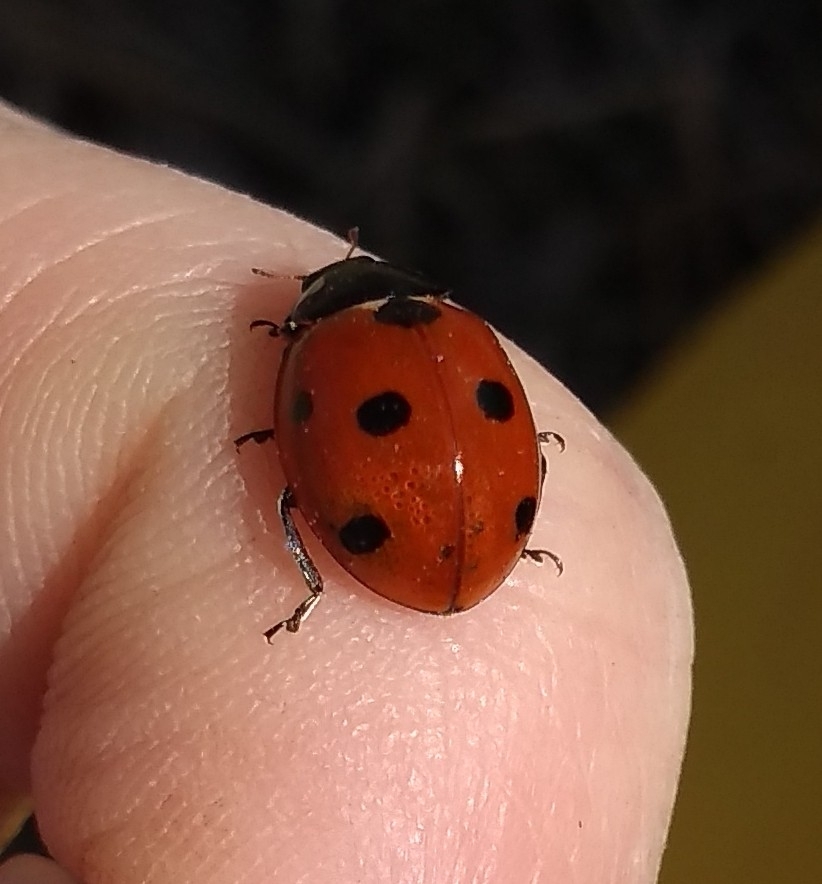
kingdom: Animalia
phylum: Arthropoda
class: Insecta
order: Coleoptera
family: Coccinellidae
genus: Coccinella
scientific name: Coccinella septempunctata
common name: Sevenspotted lady beetle
